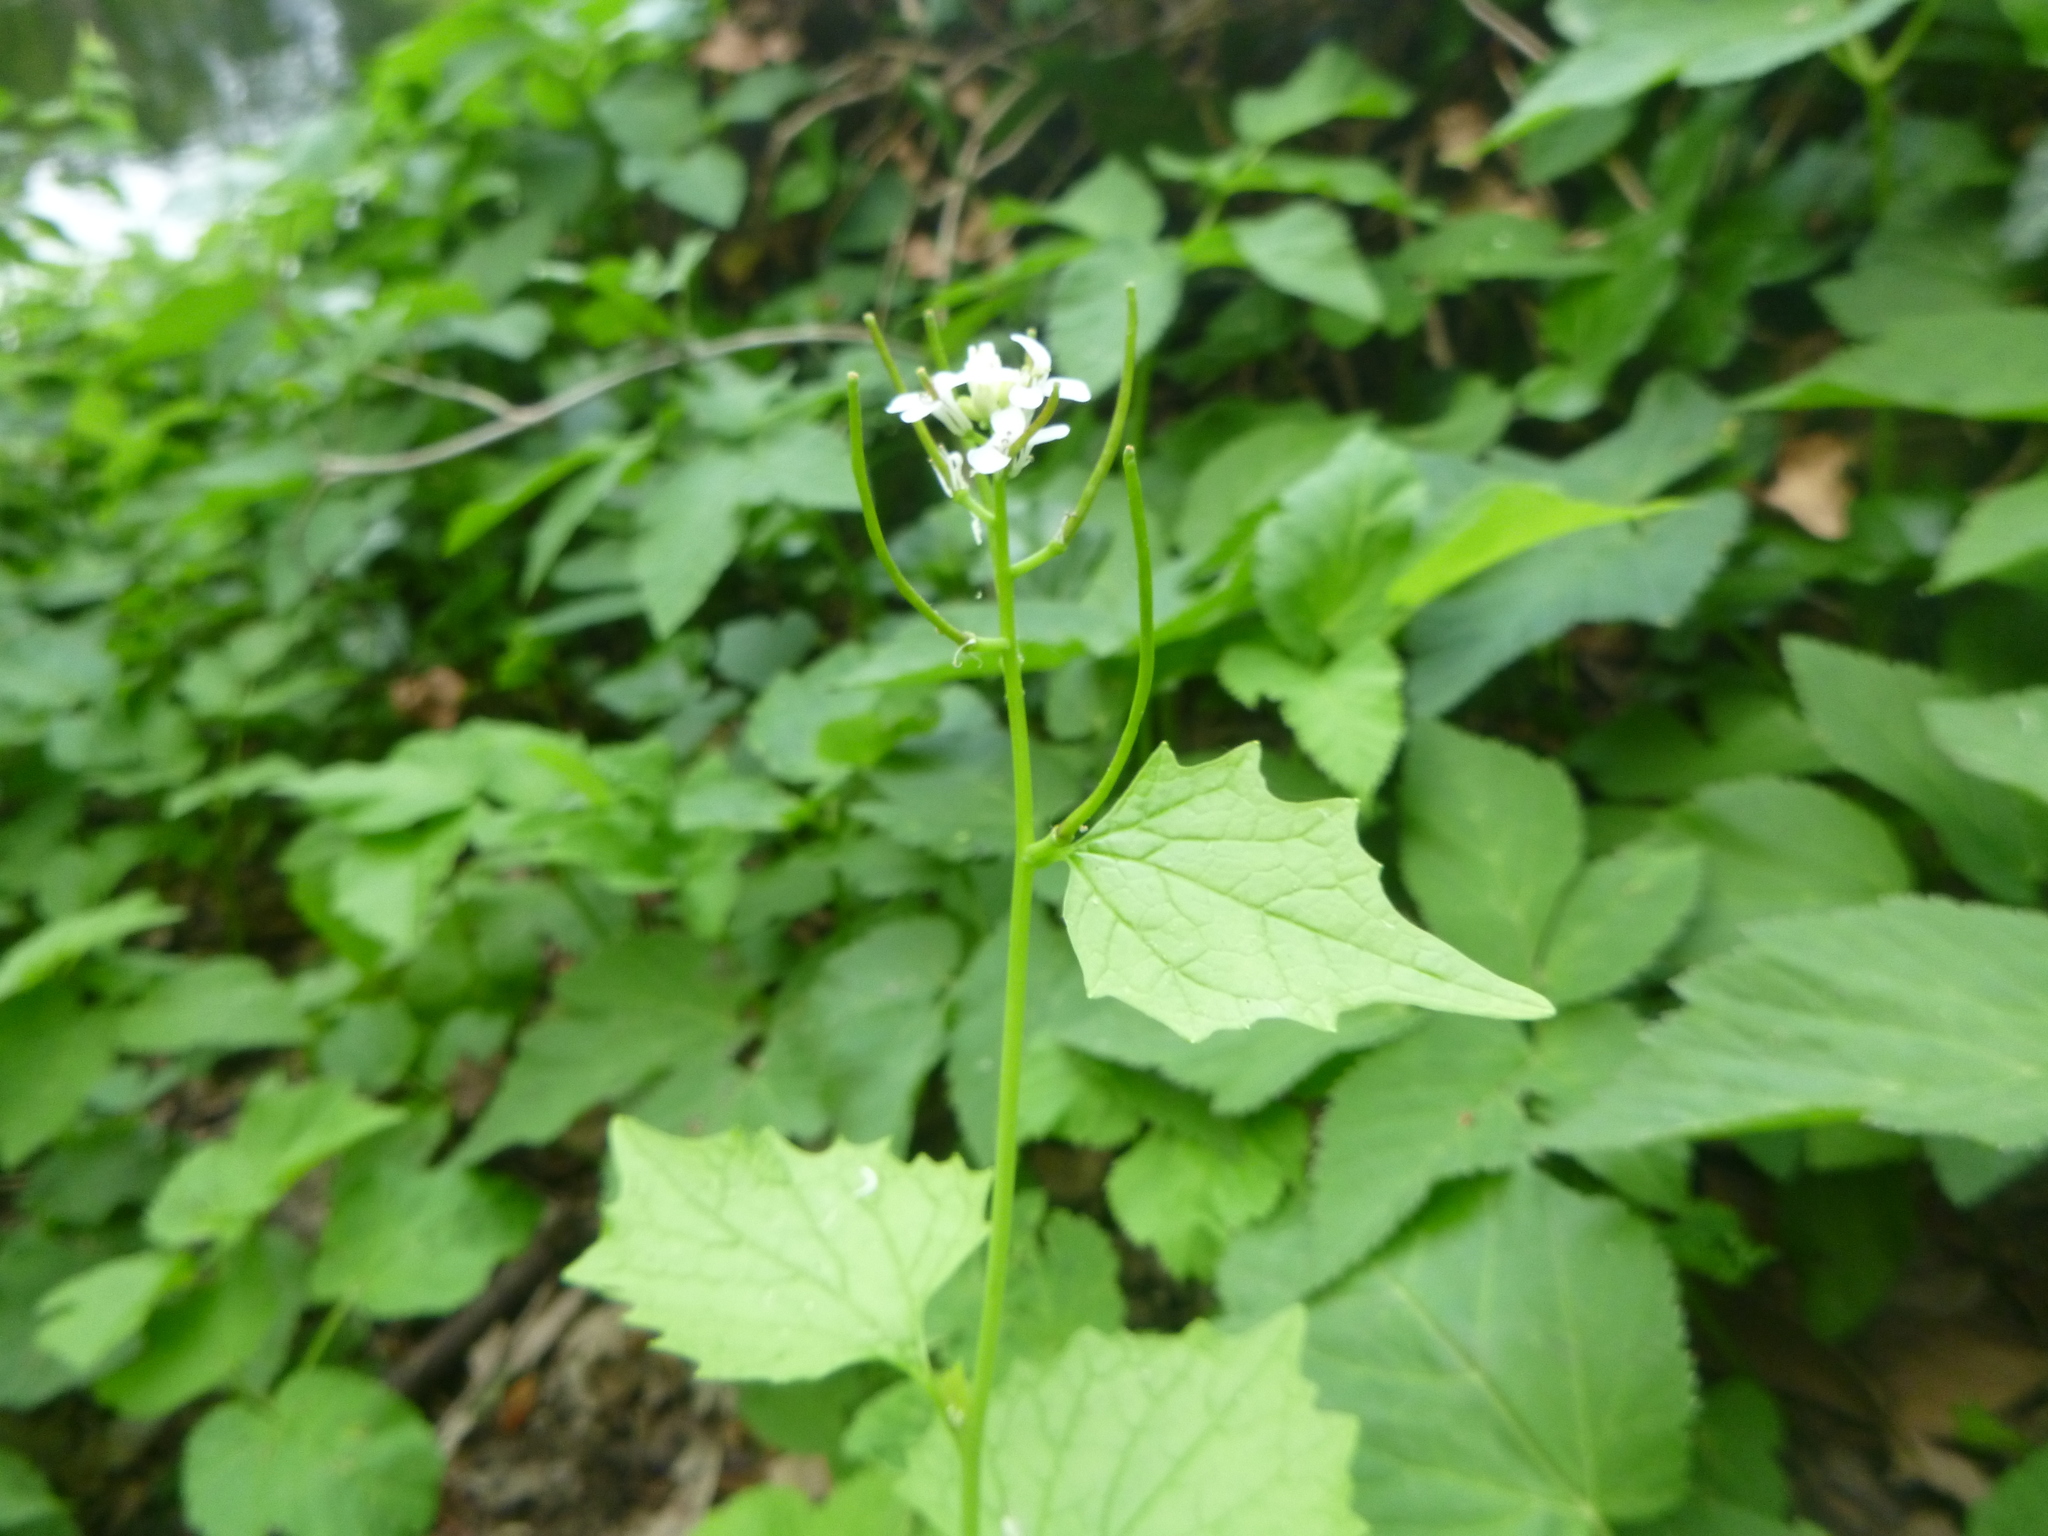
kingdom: Plantae
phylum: Tracheophyta
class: Magnoliopsida
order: Brassicales
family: Brassicaceae
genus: Alliaria
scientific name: Alliaria petiolata
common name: Garlic mustard
